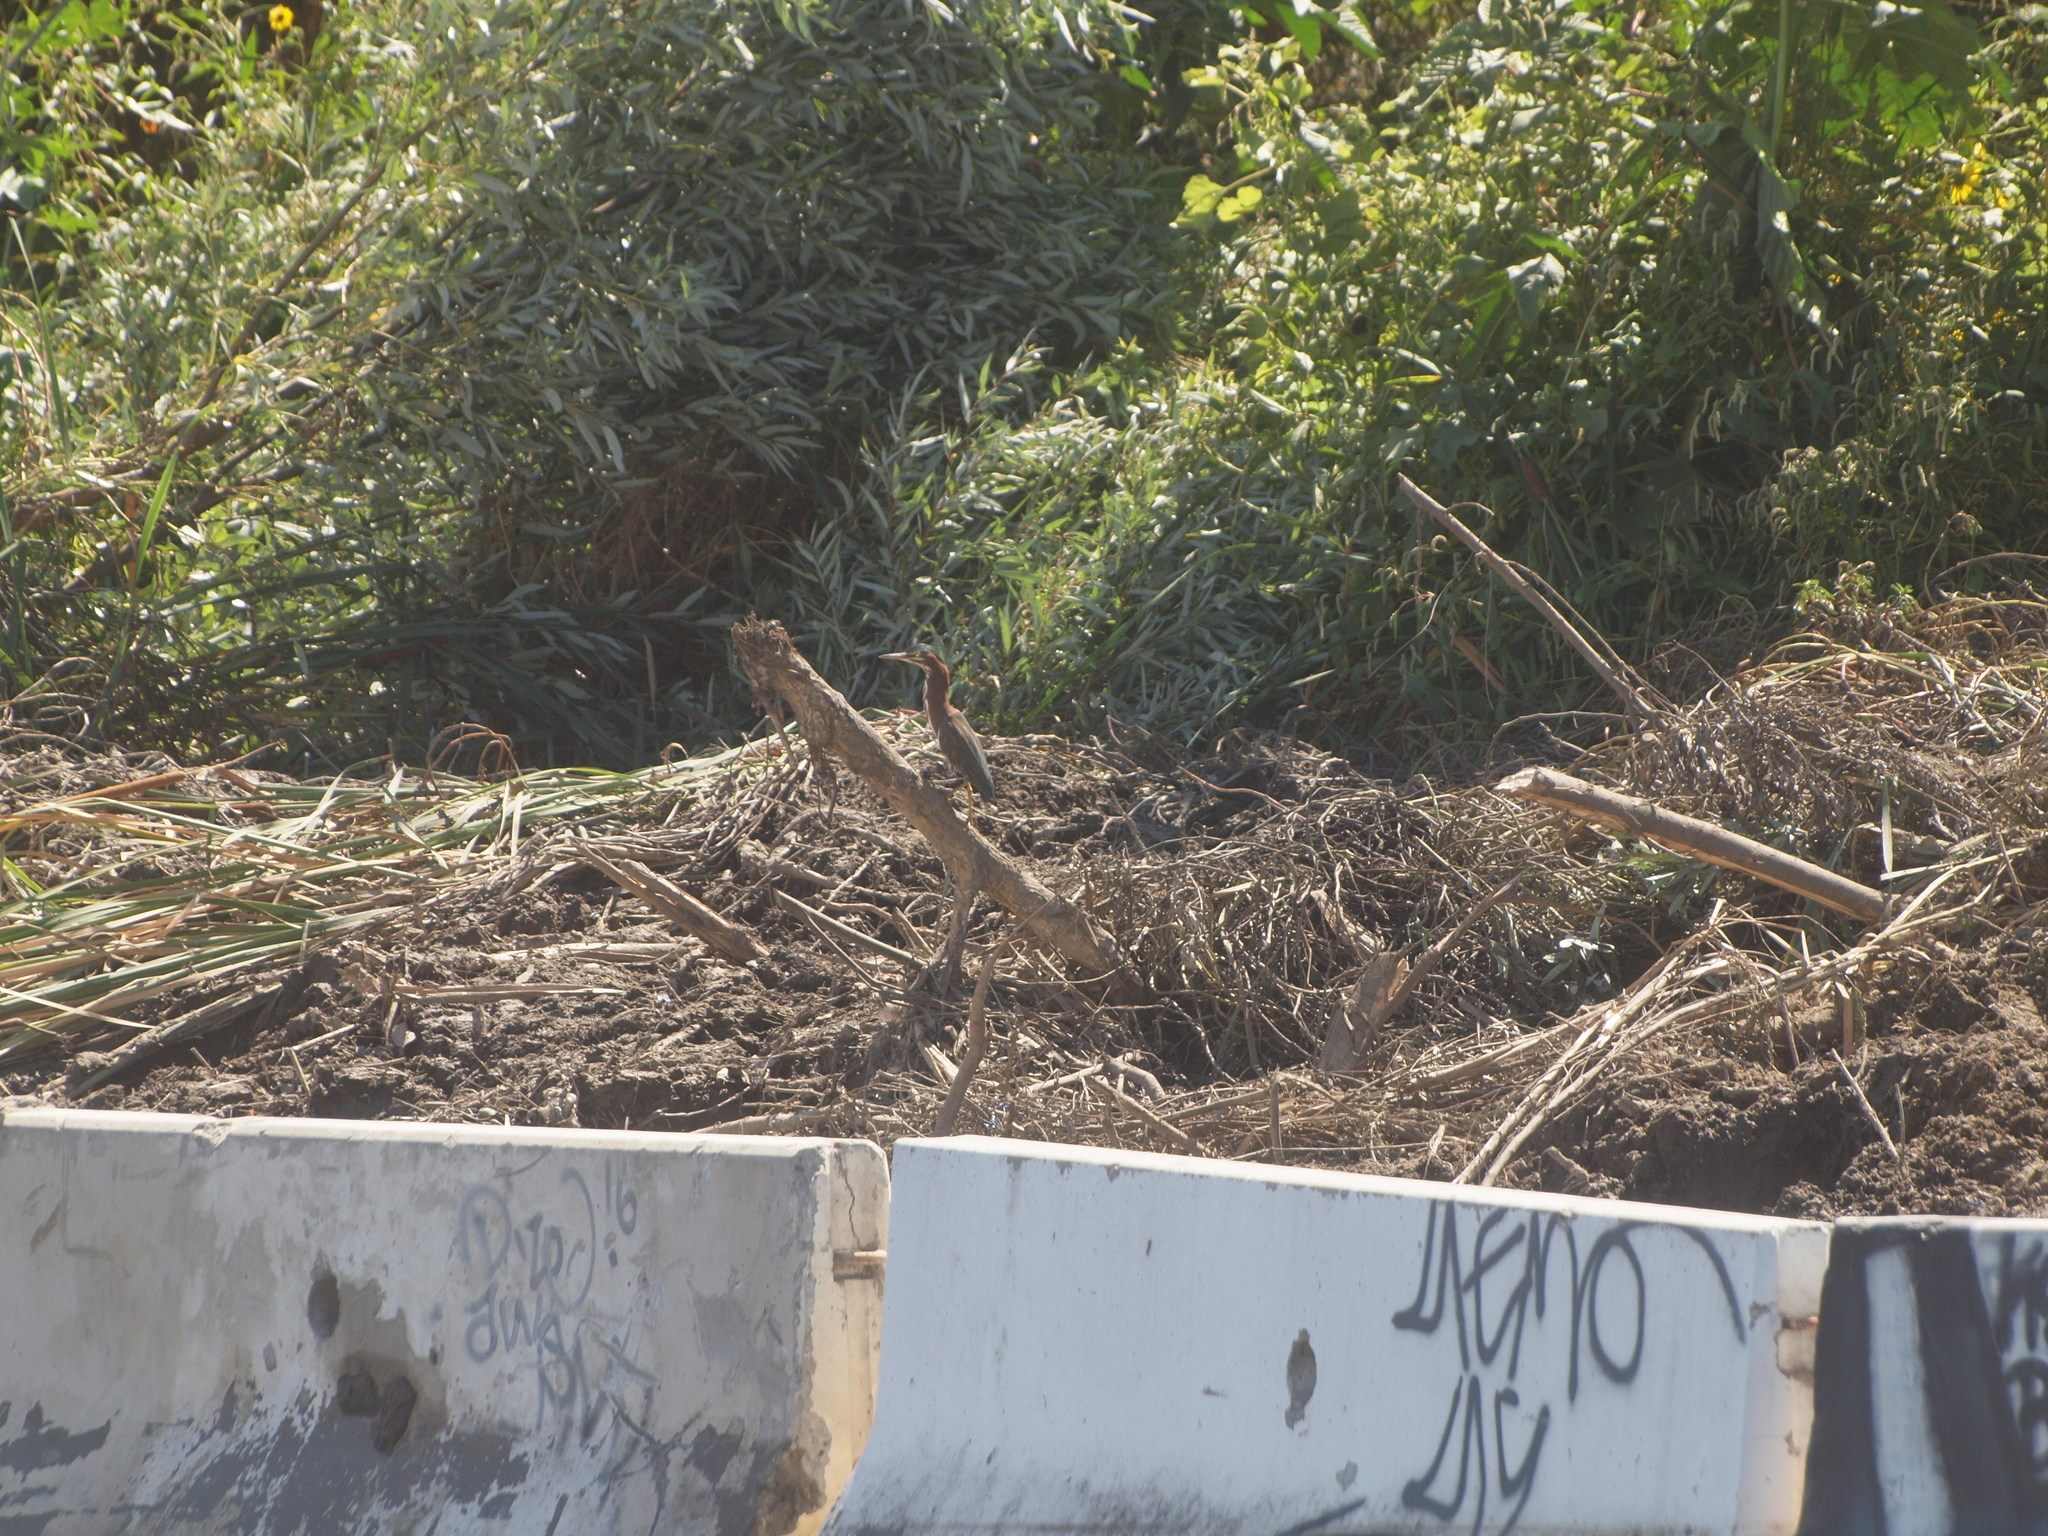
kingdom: Animalia
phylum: Chordata
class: Aves
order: Pelecaniformes
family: Ardeidae
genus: Butorides
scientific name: Butorides virescens
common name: Green heron
